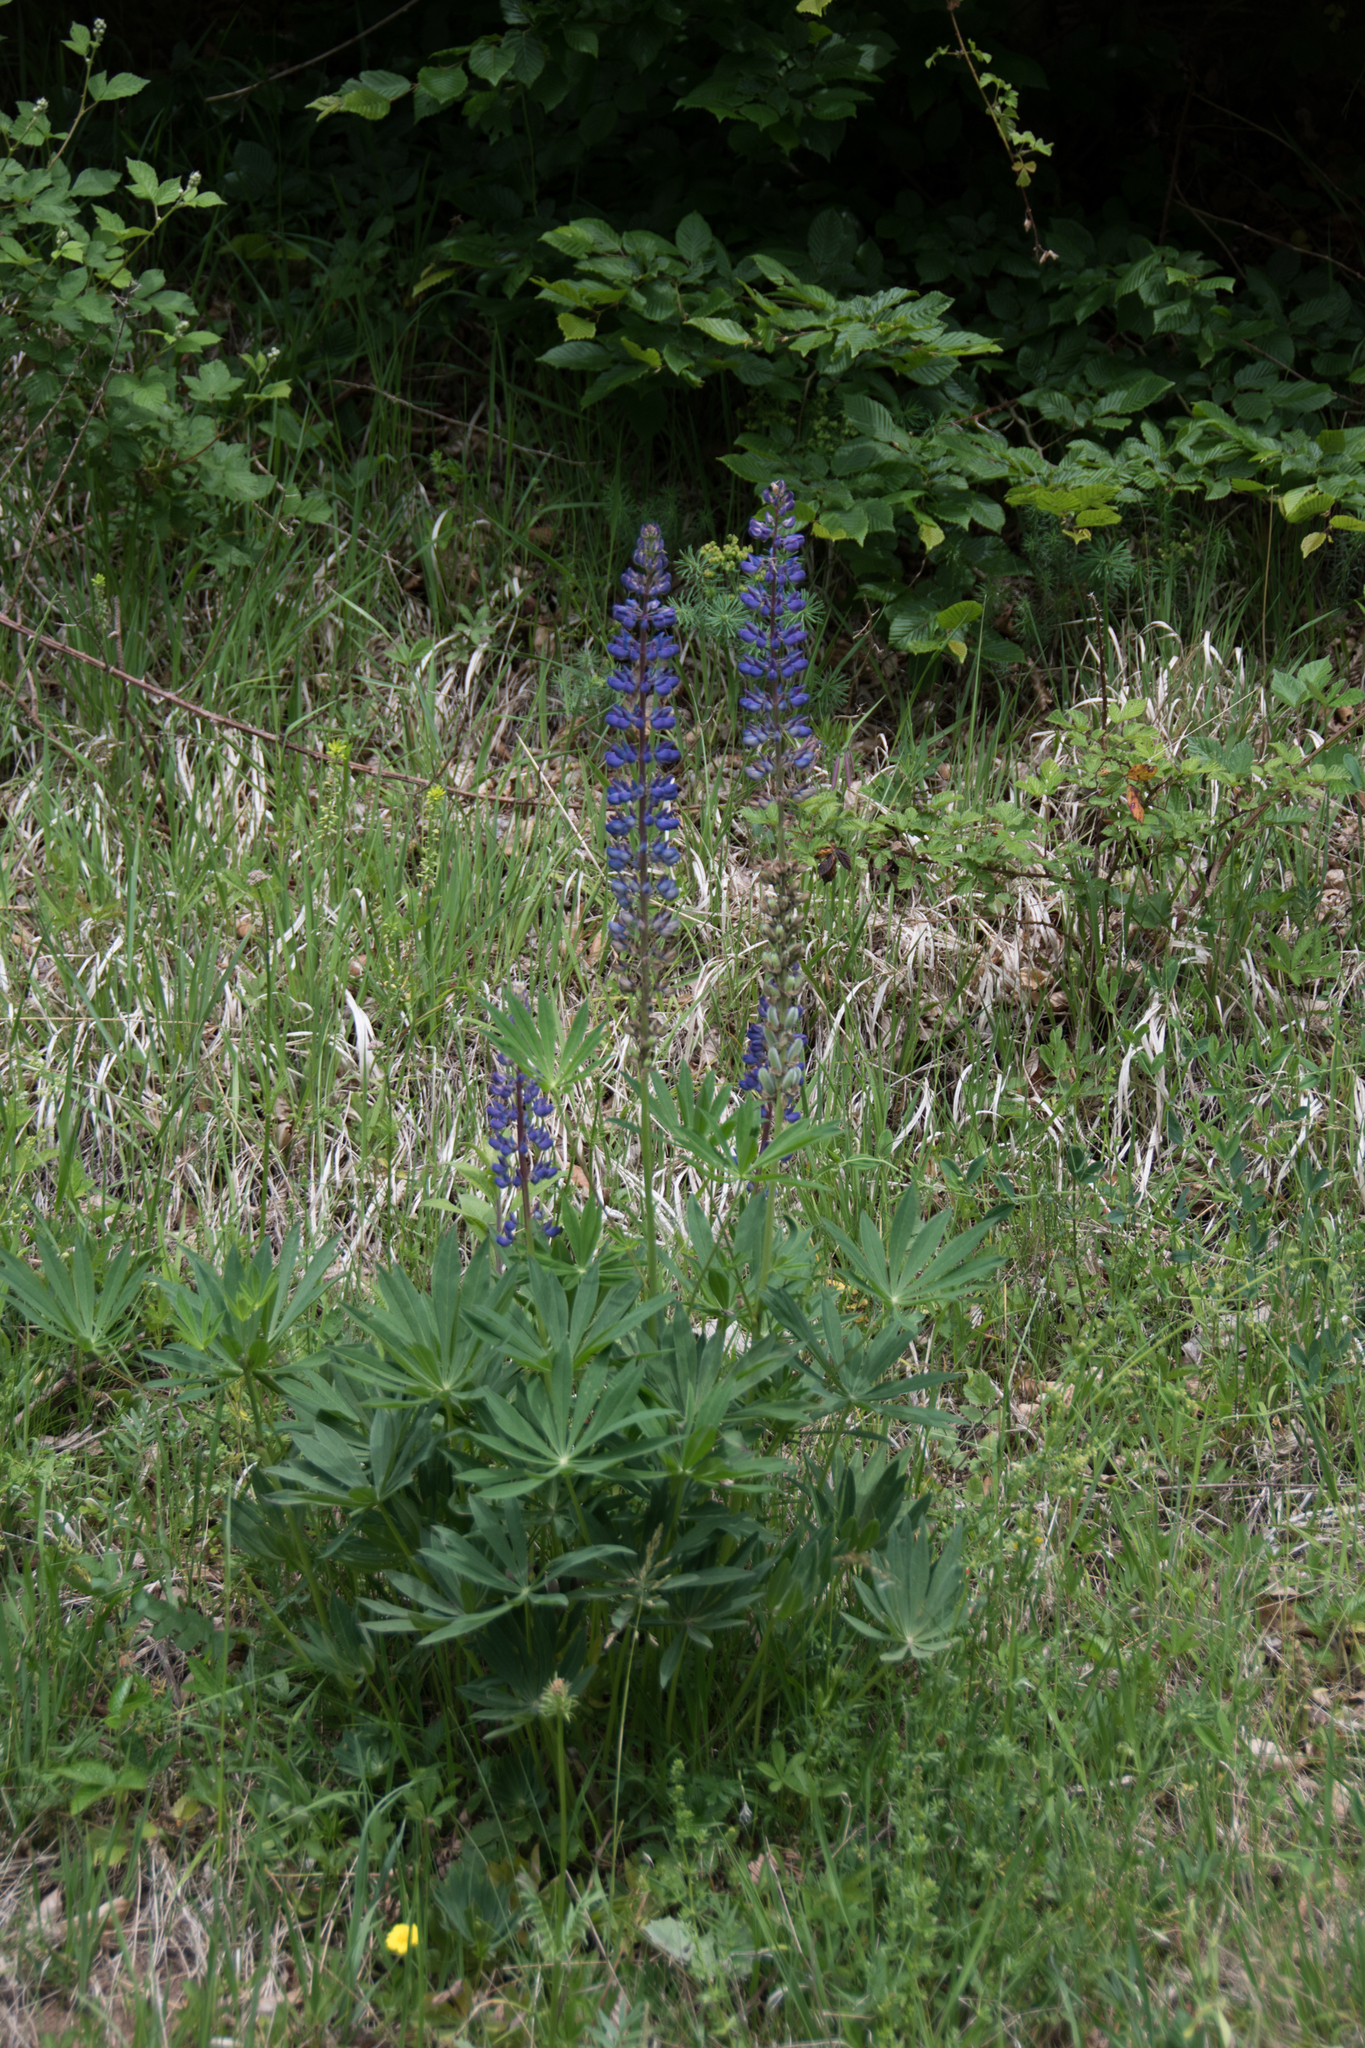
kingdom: Plantae
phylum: Tracheophyta
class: Magnoliopsida
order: Fabales
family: Fabaceae
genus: Lupinus
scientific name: Lupinus polyphyllus
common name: Garden lupin
